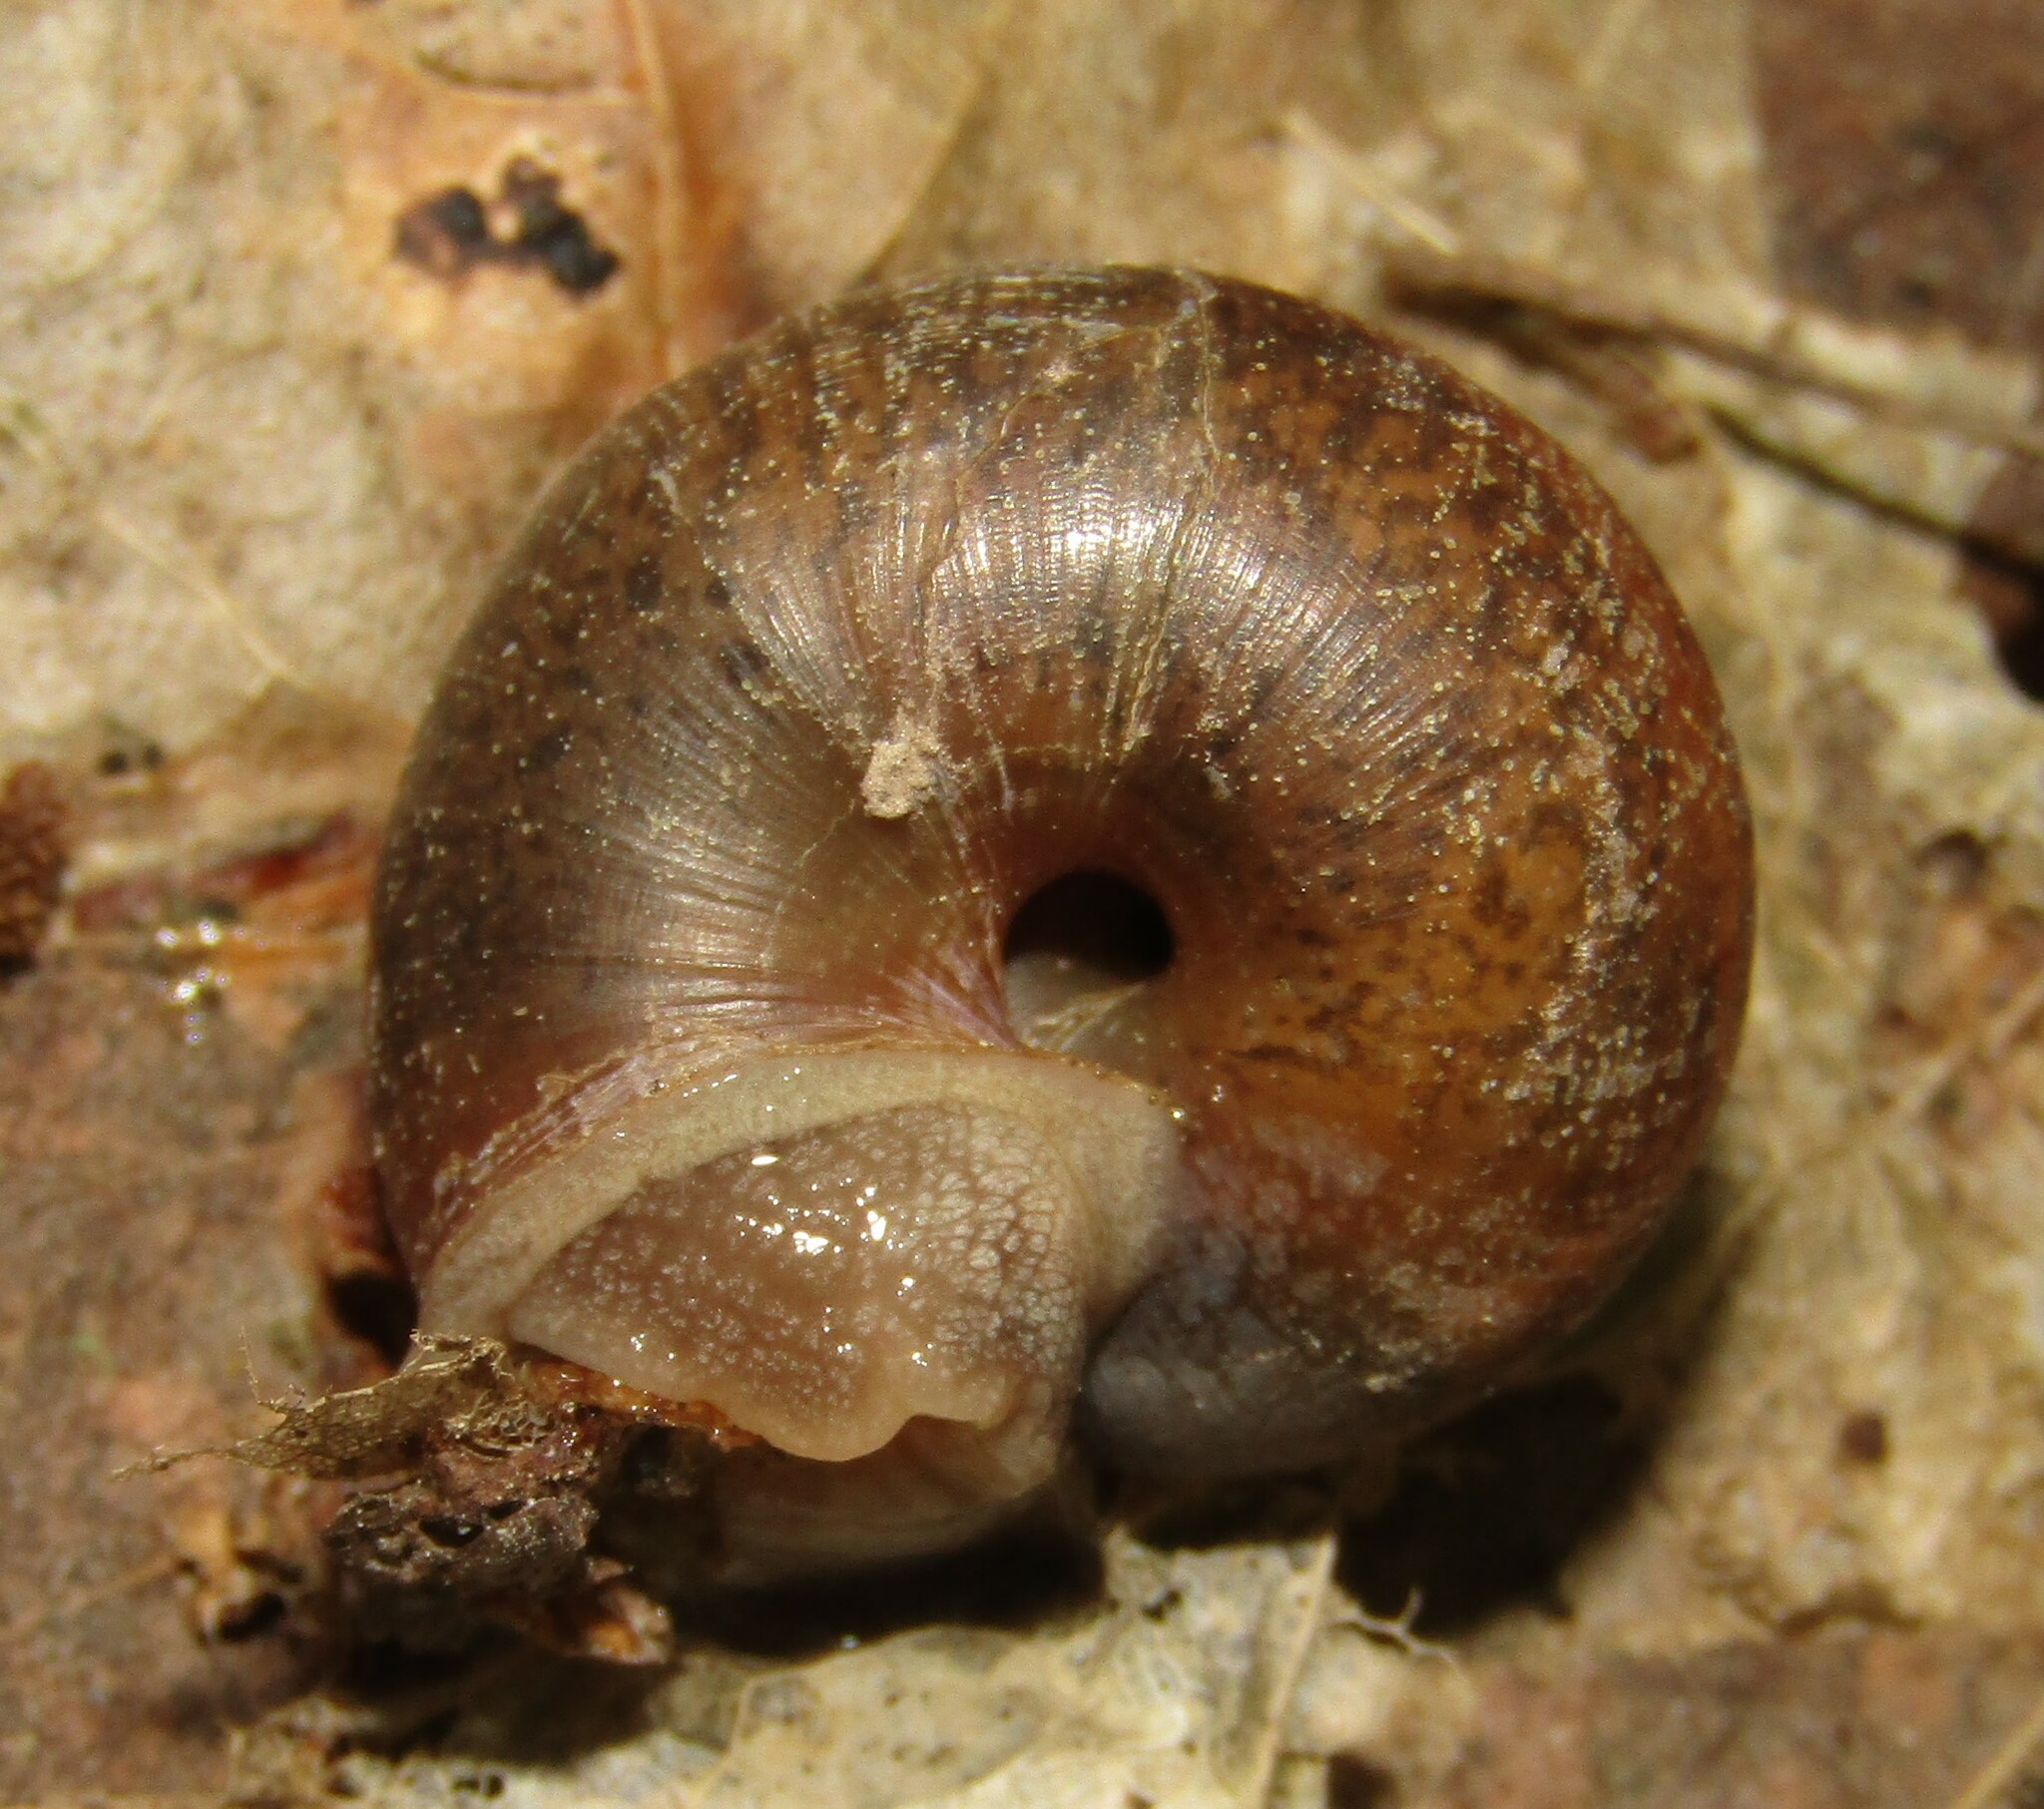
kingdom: Animalia
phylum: Mollusca
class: Gastropoda
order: Stylommatophora
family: Camaenidae
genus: Fruticicola
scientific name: Fruticicola fruticum
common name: Bush snail
